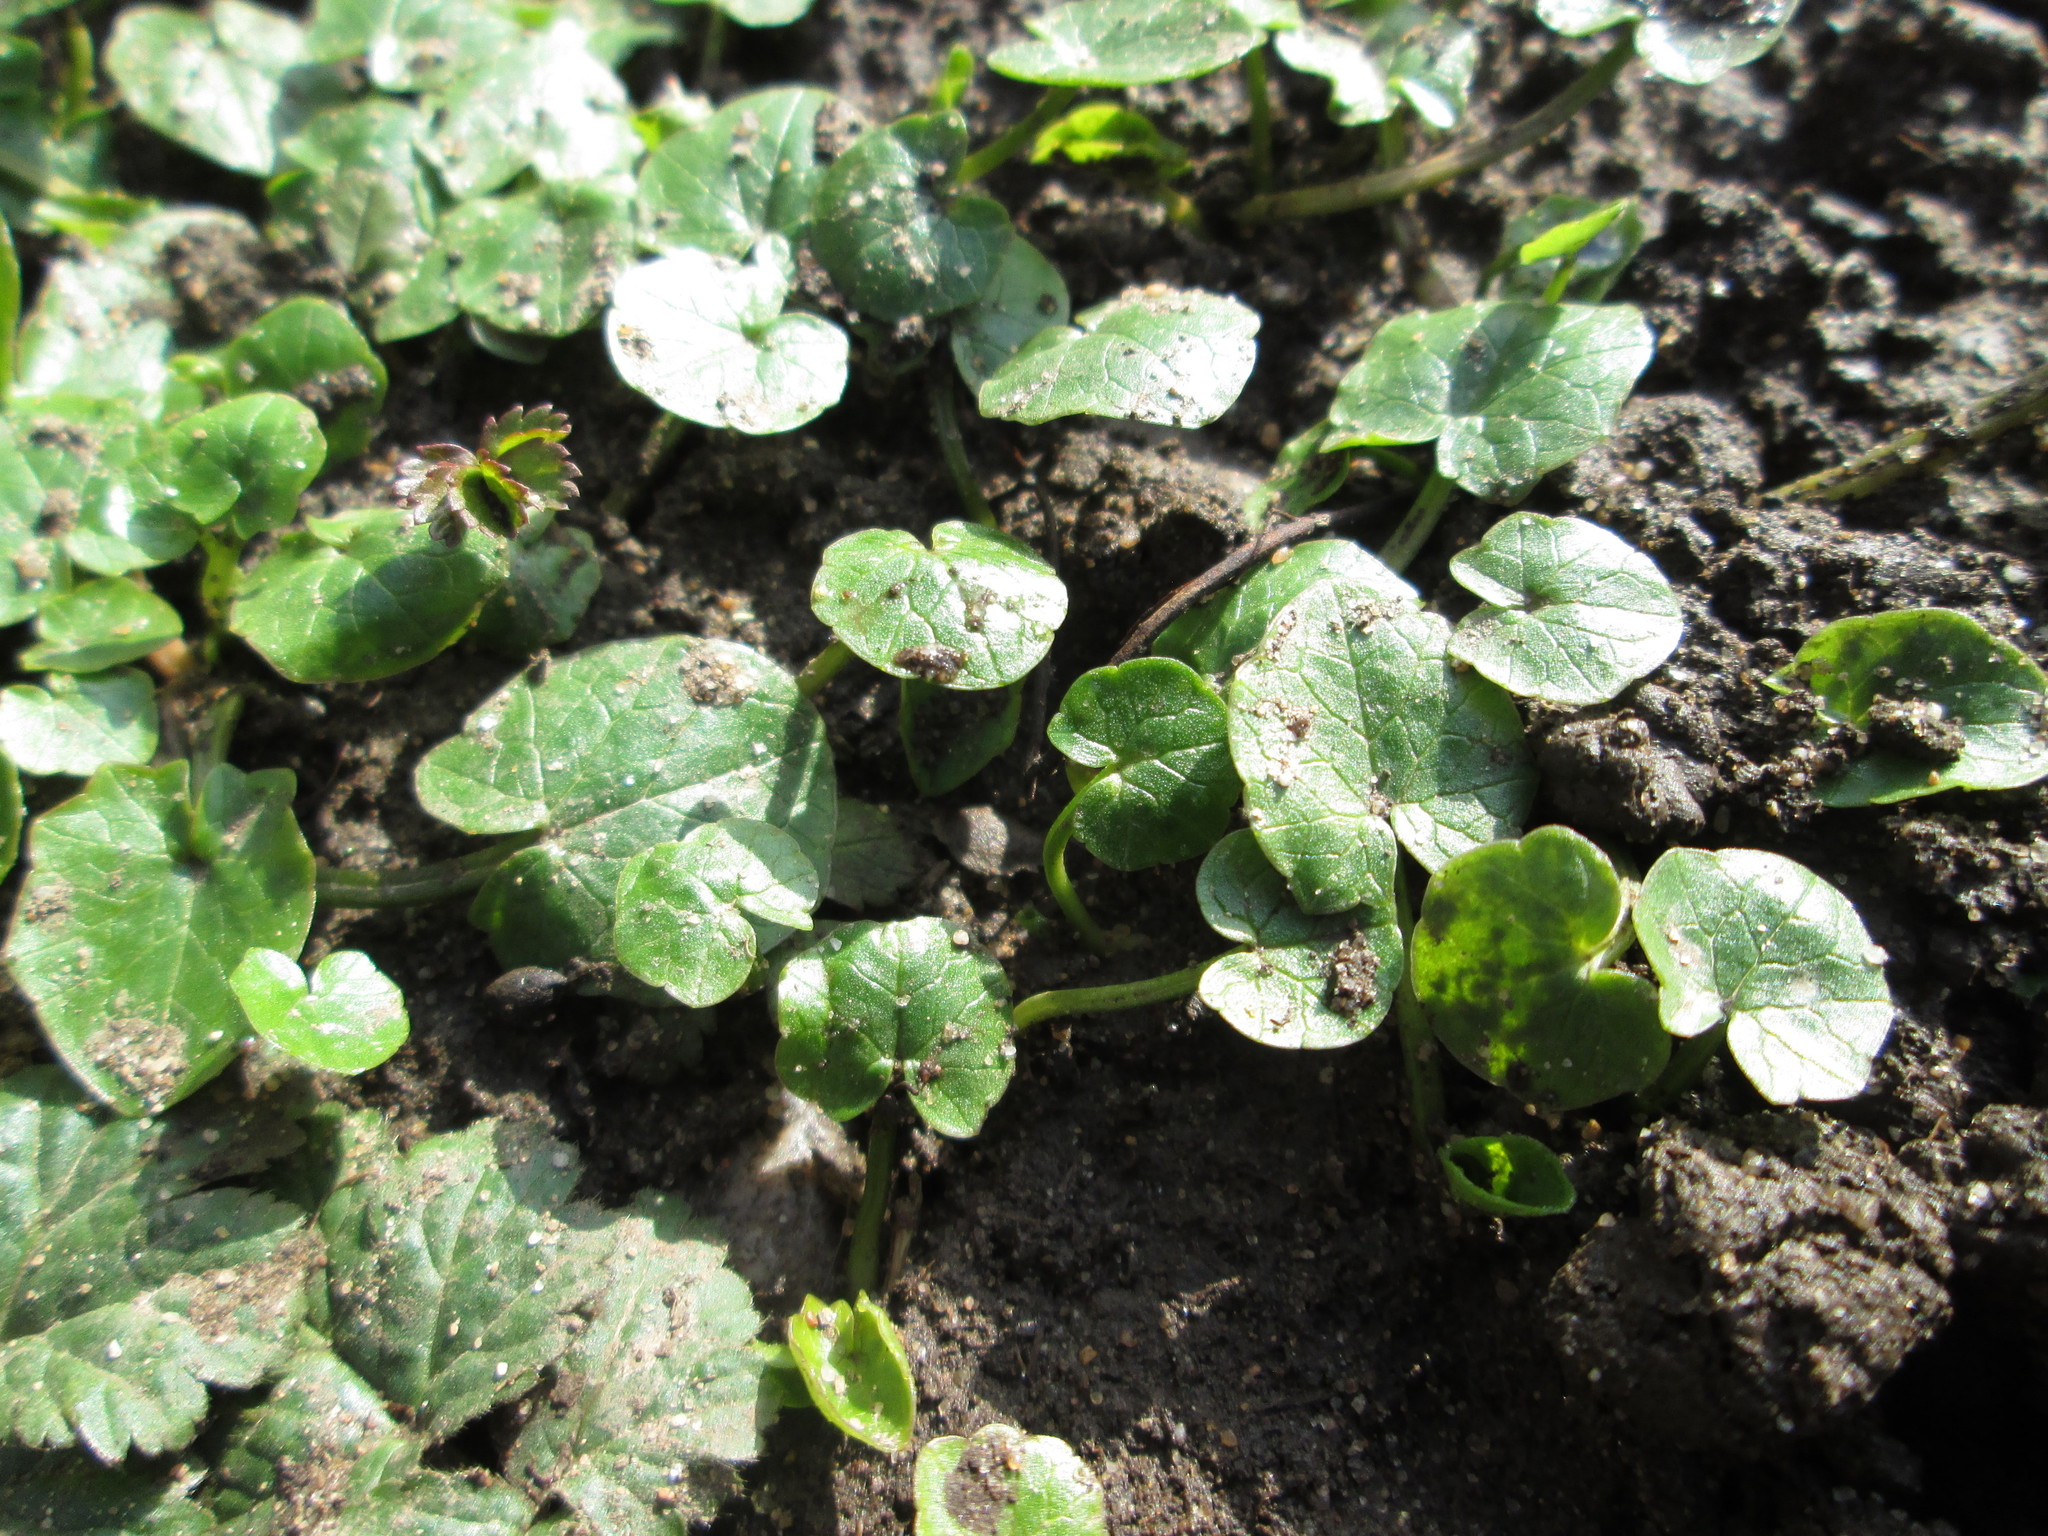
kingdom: Plantae
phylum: Tracheophyta
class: Magnoliopsida
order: Ranunculales
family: Ranunculaceae
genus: Ficaria
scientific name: Ficaria verna
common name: Lesser celandine
